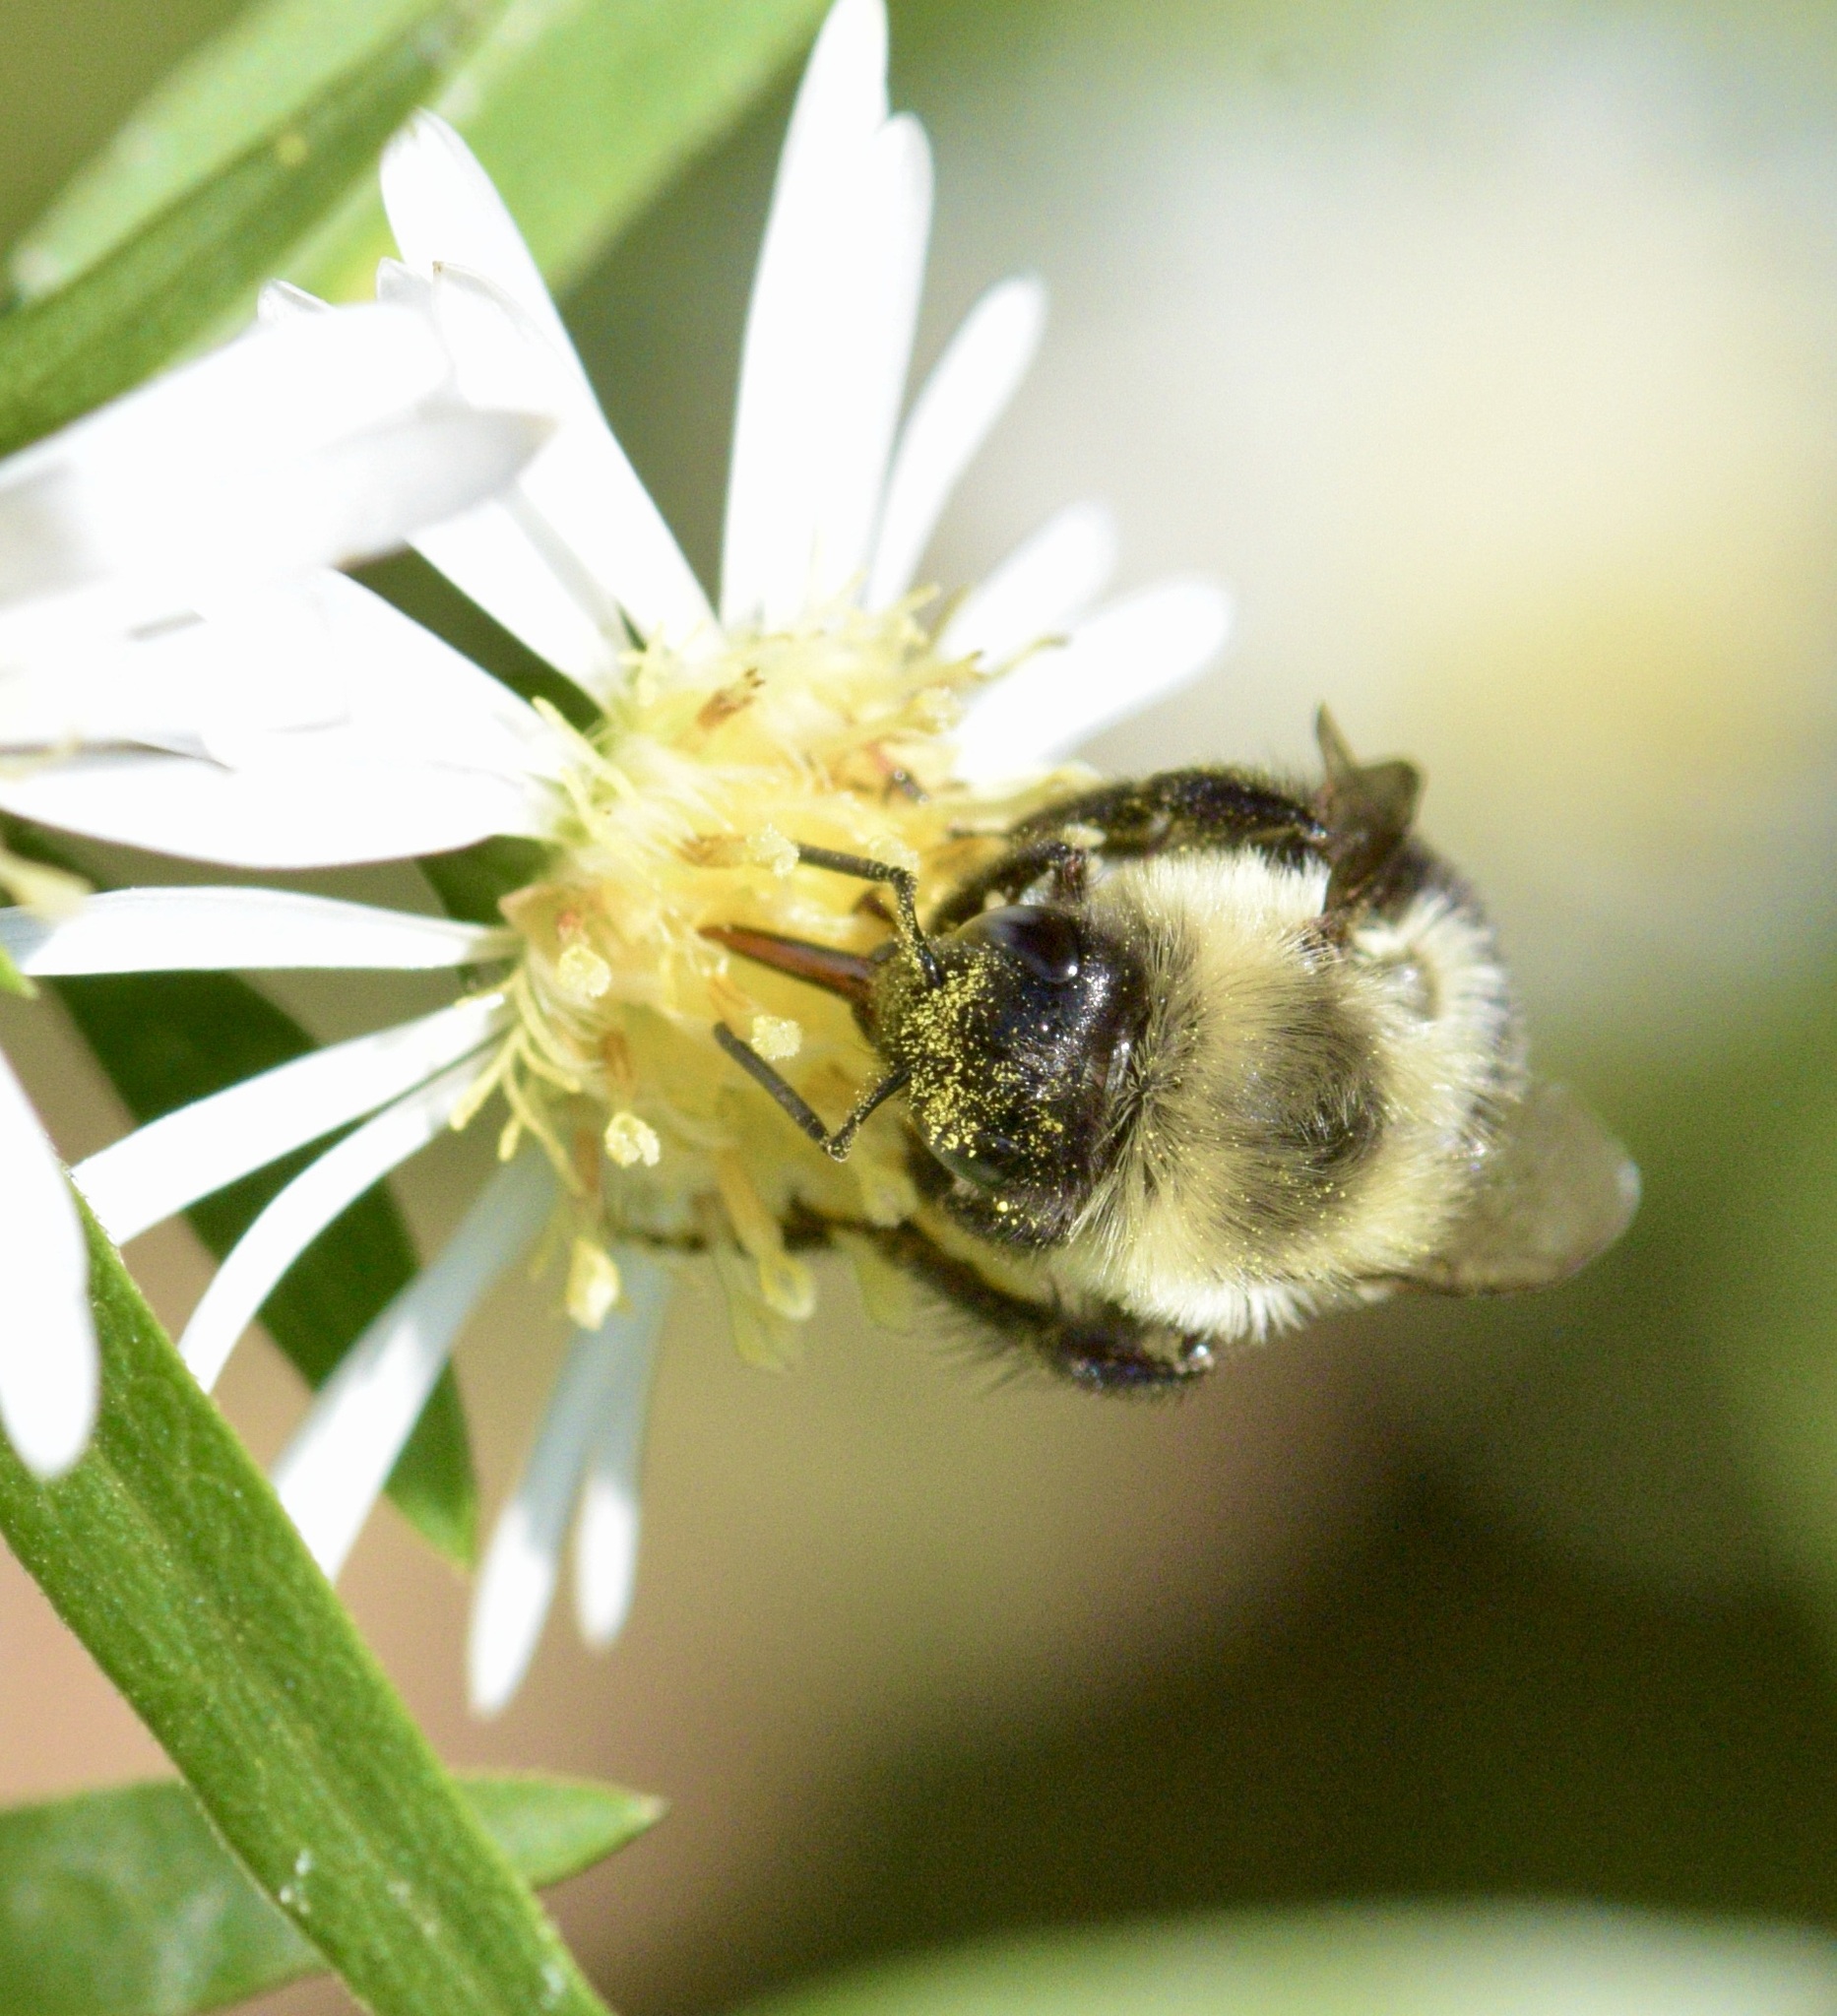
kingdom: Animalia
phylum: Arthropoda
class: Insecta
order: Hymenoptera
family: Apidae
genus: Bombus
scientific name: Bombus impatiens
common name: Common eastern bumble bee
